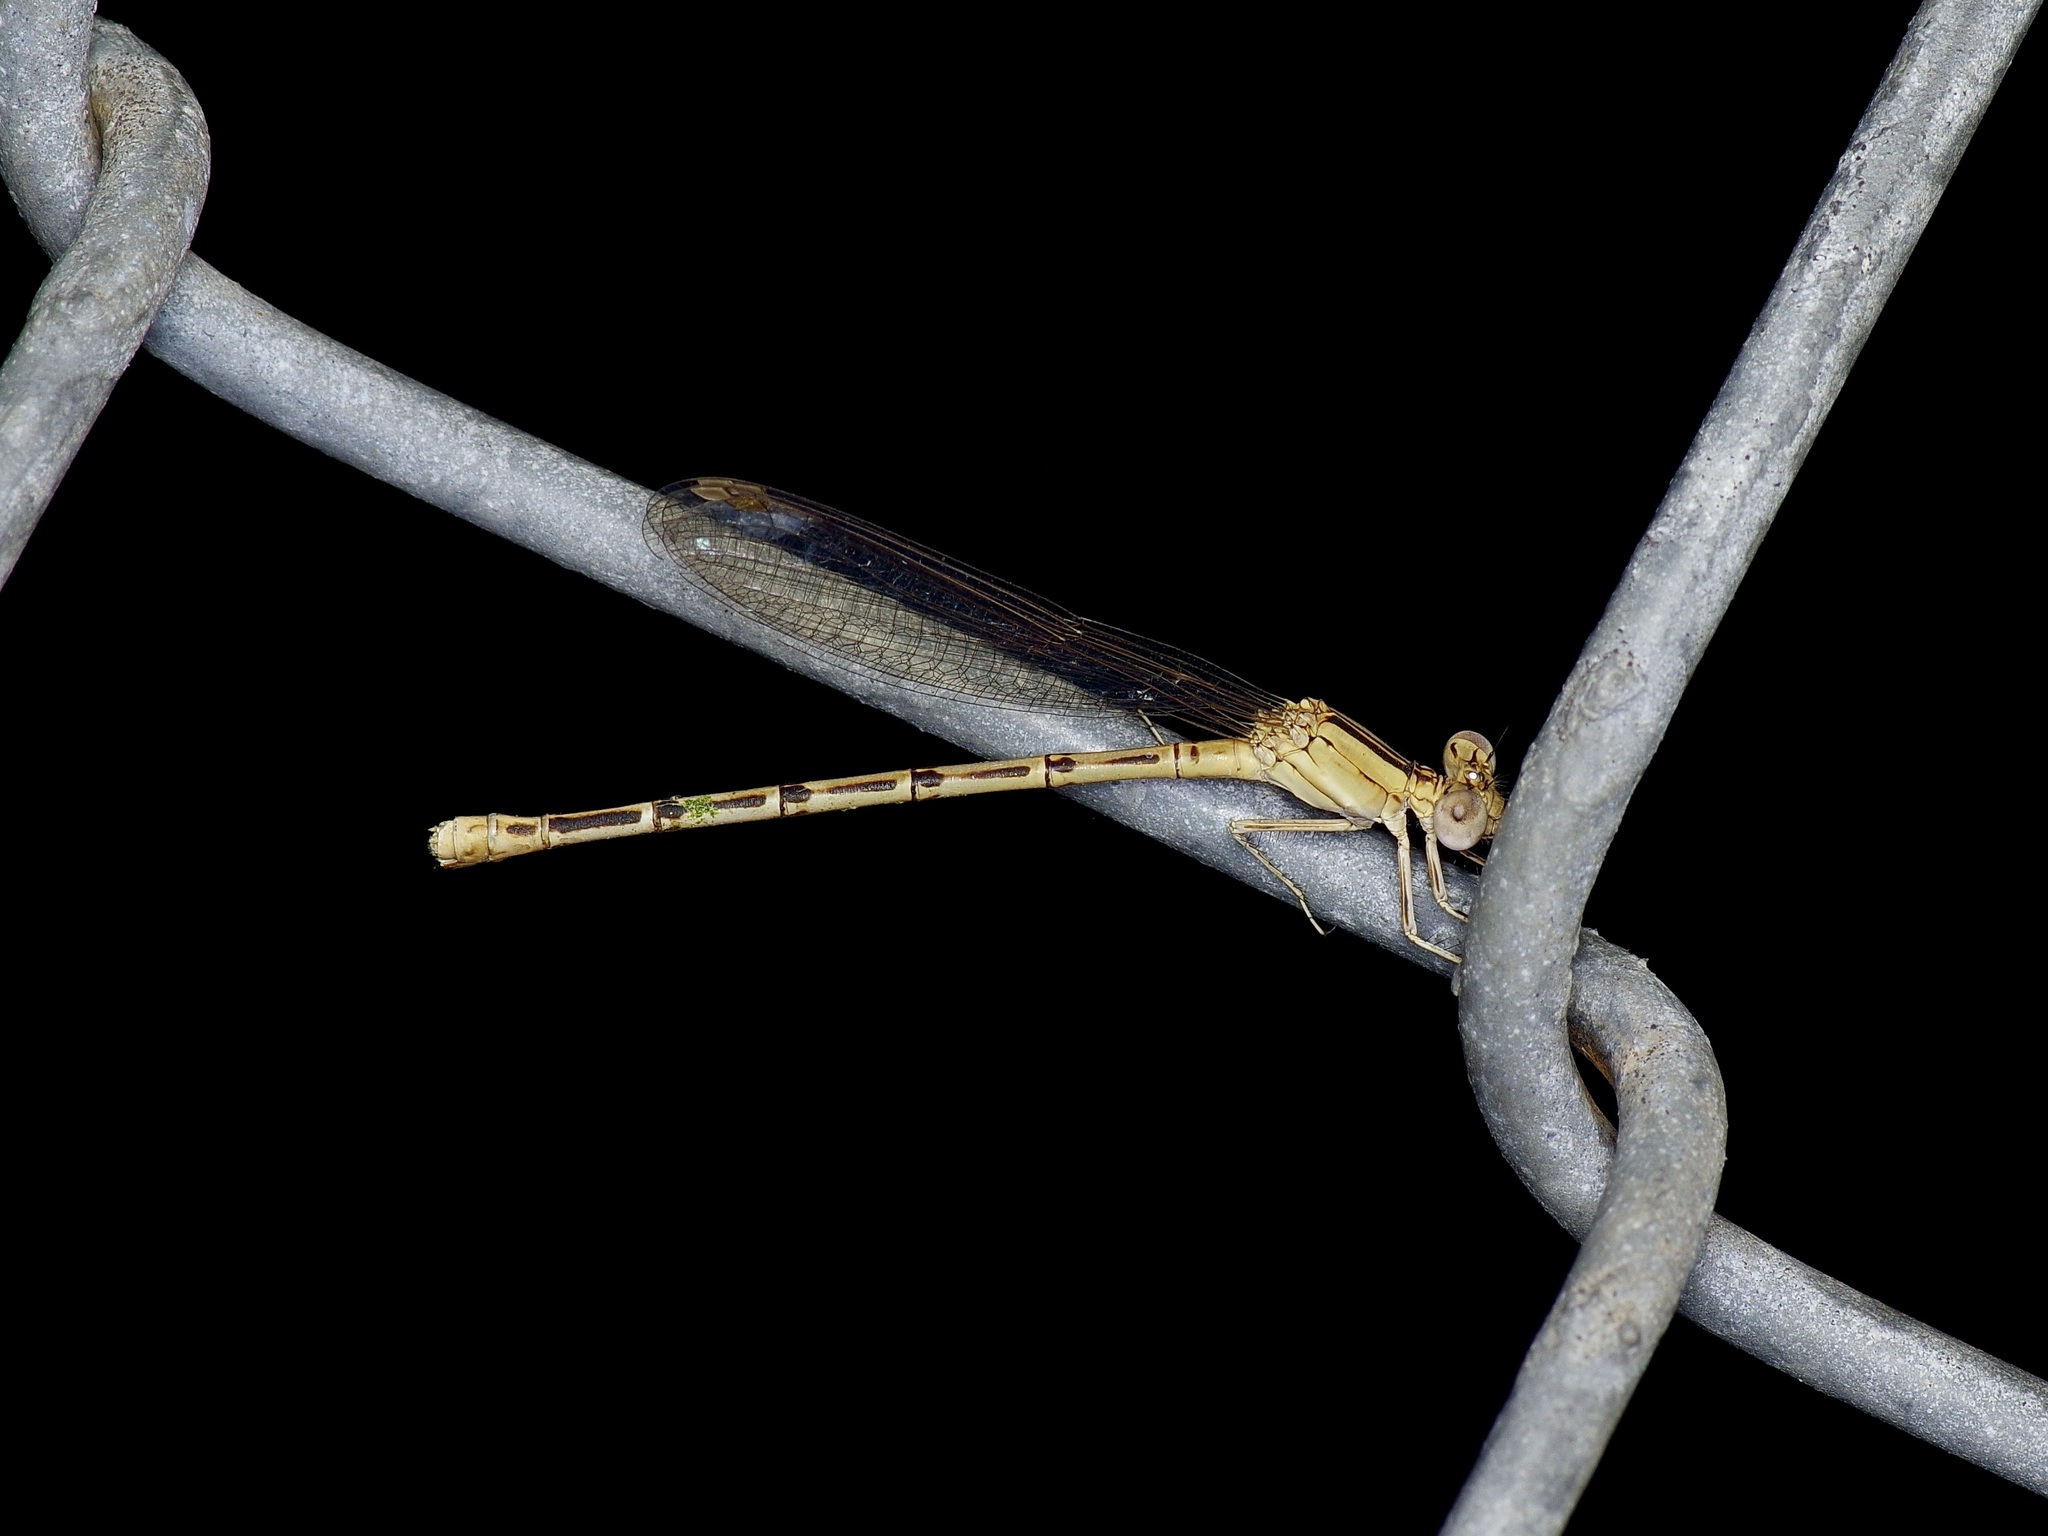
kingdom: Animalia
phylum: Arthropoda
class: Insecta
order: Odonata
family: Coenagrionidae
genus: Argia
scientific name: Argia nahuana
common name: Aztec dancer
